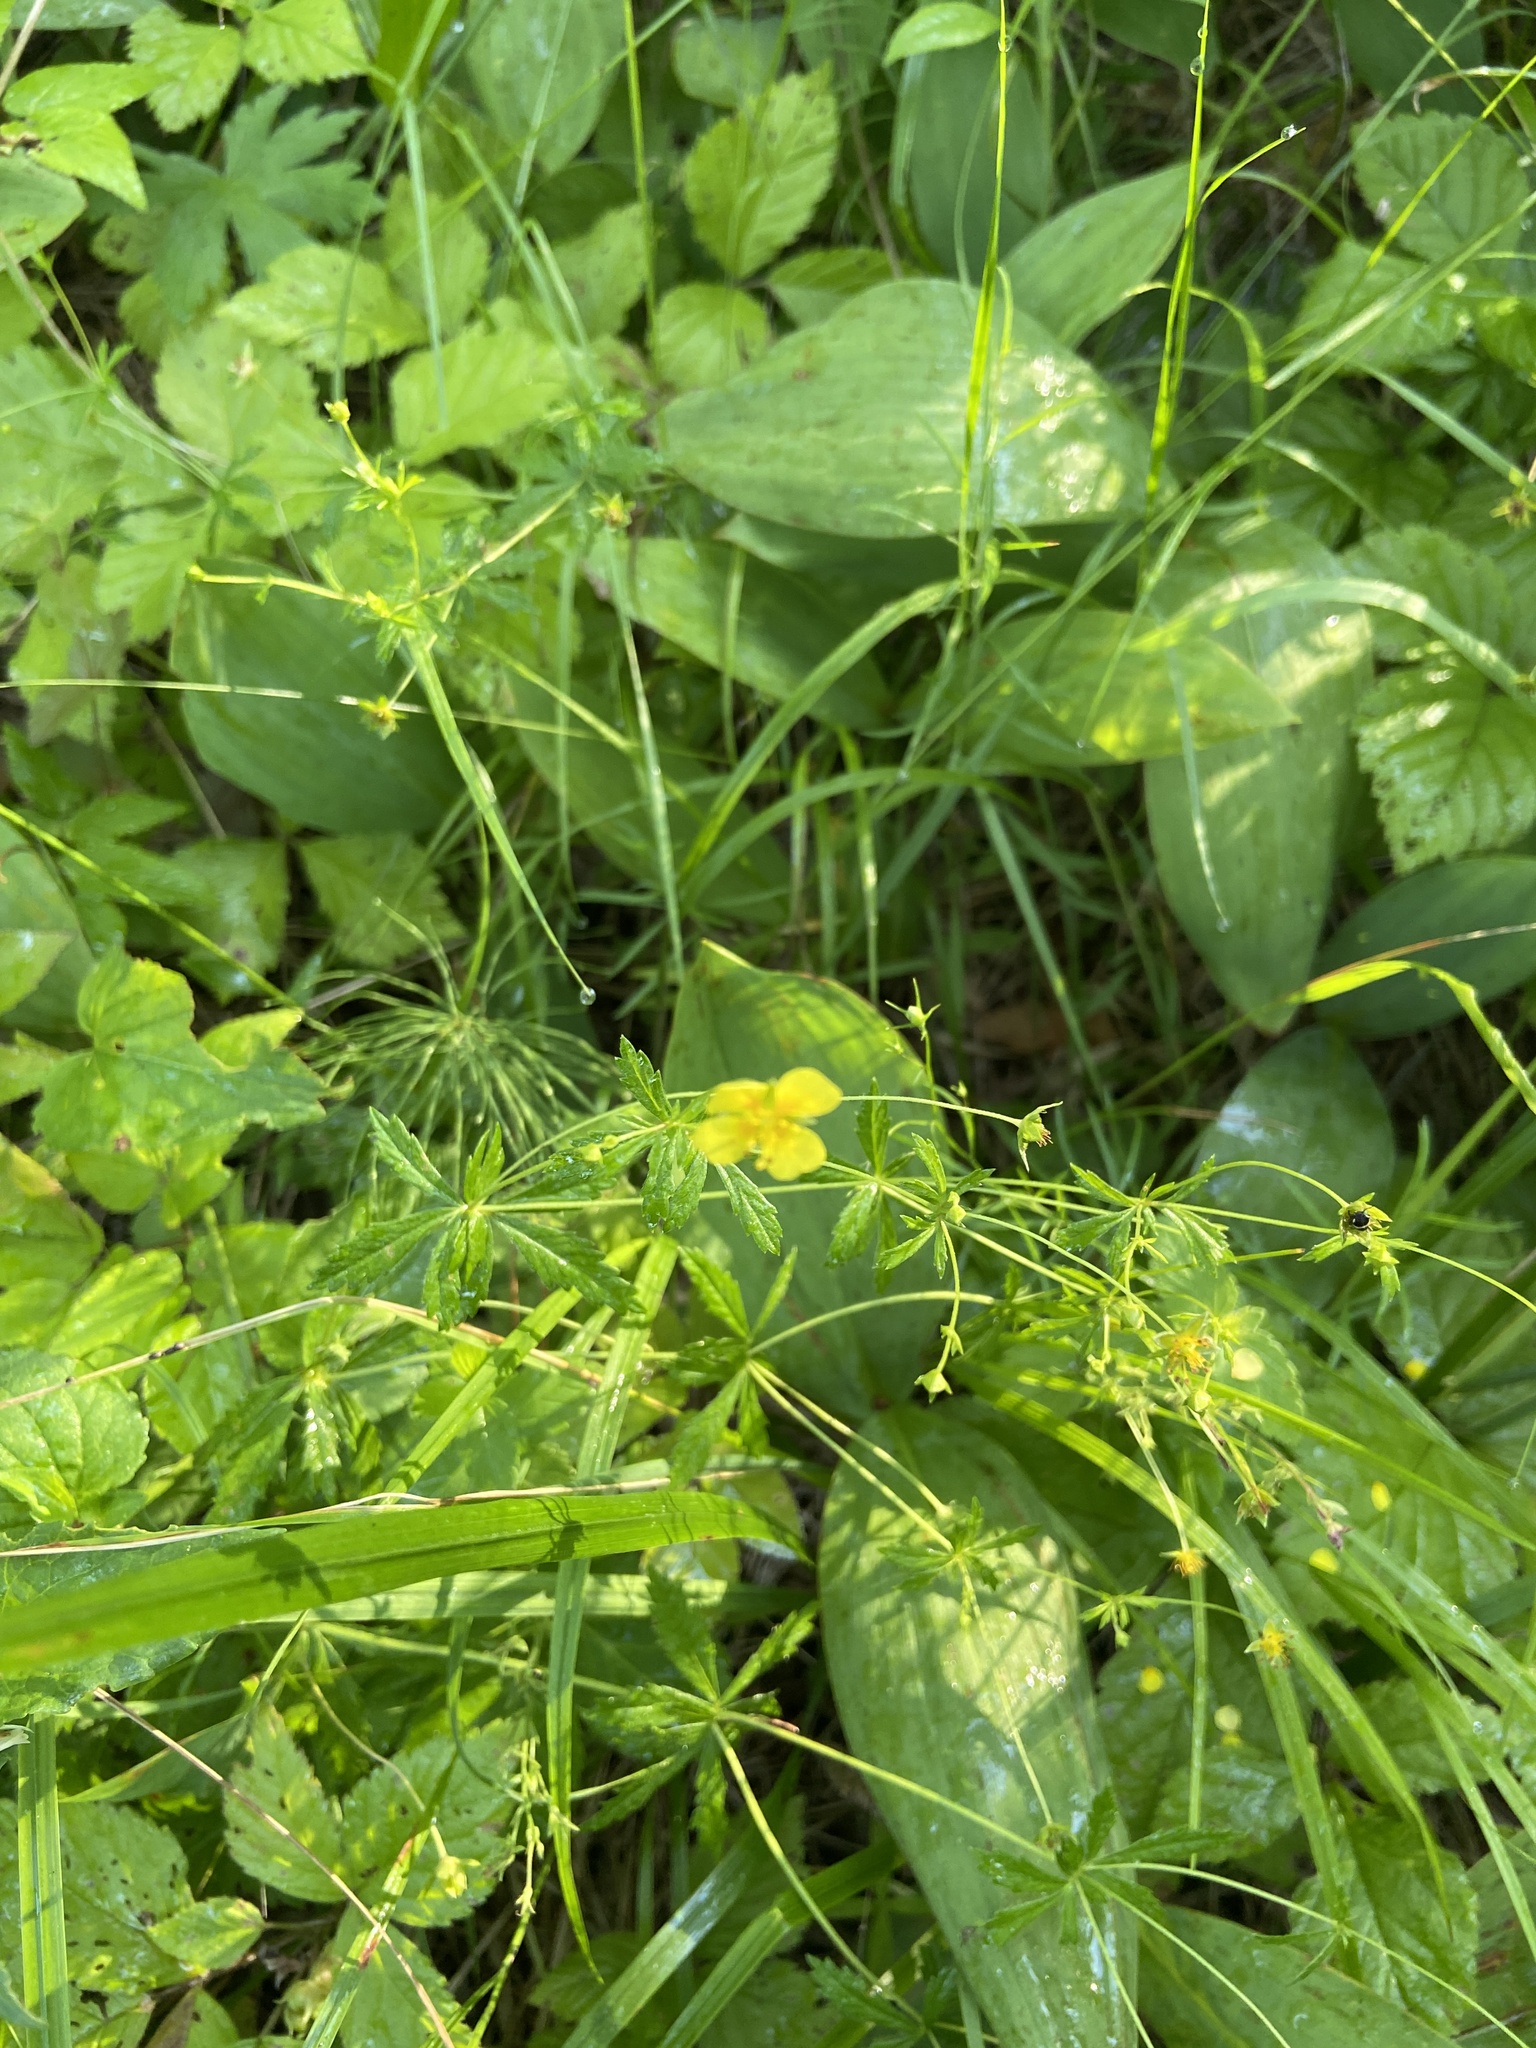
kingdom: Plantae
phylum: Tracheophyta
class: Magnoliopsida
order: Rosales
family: Rosaceae
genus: Potentilla
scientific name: Potentilla erecta
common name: Tormentil
